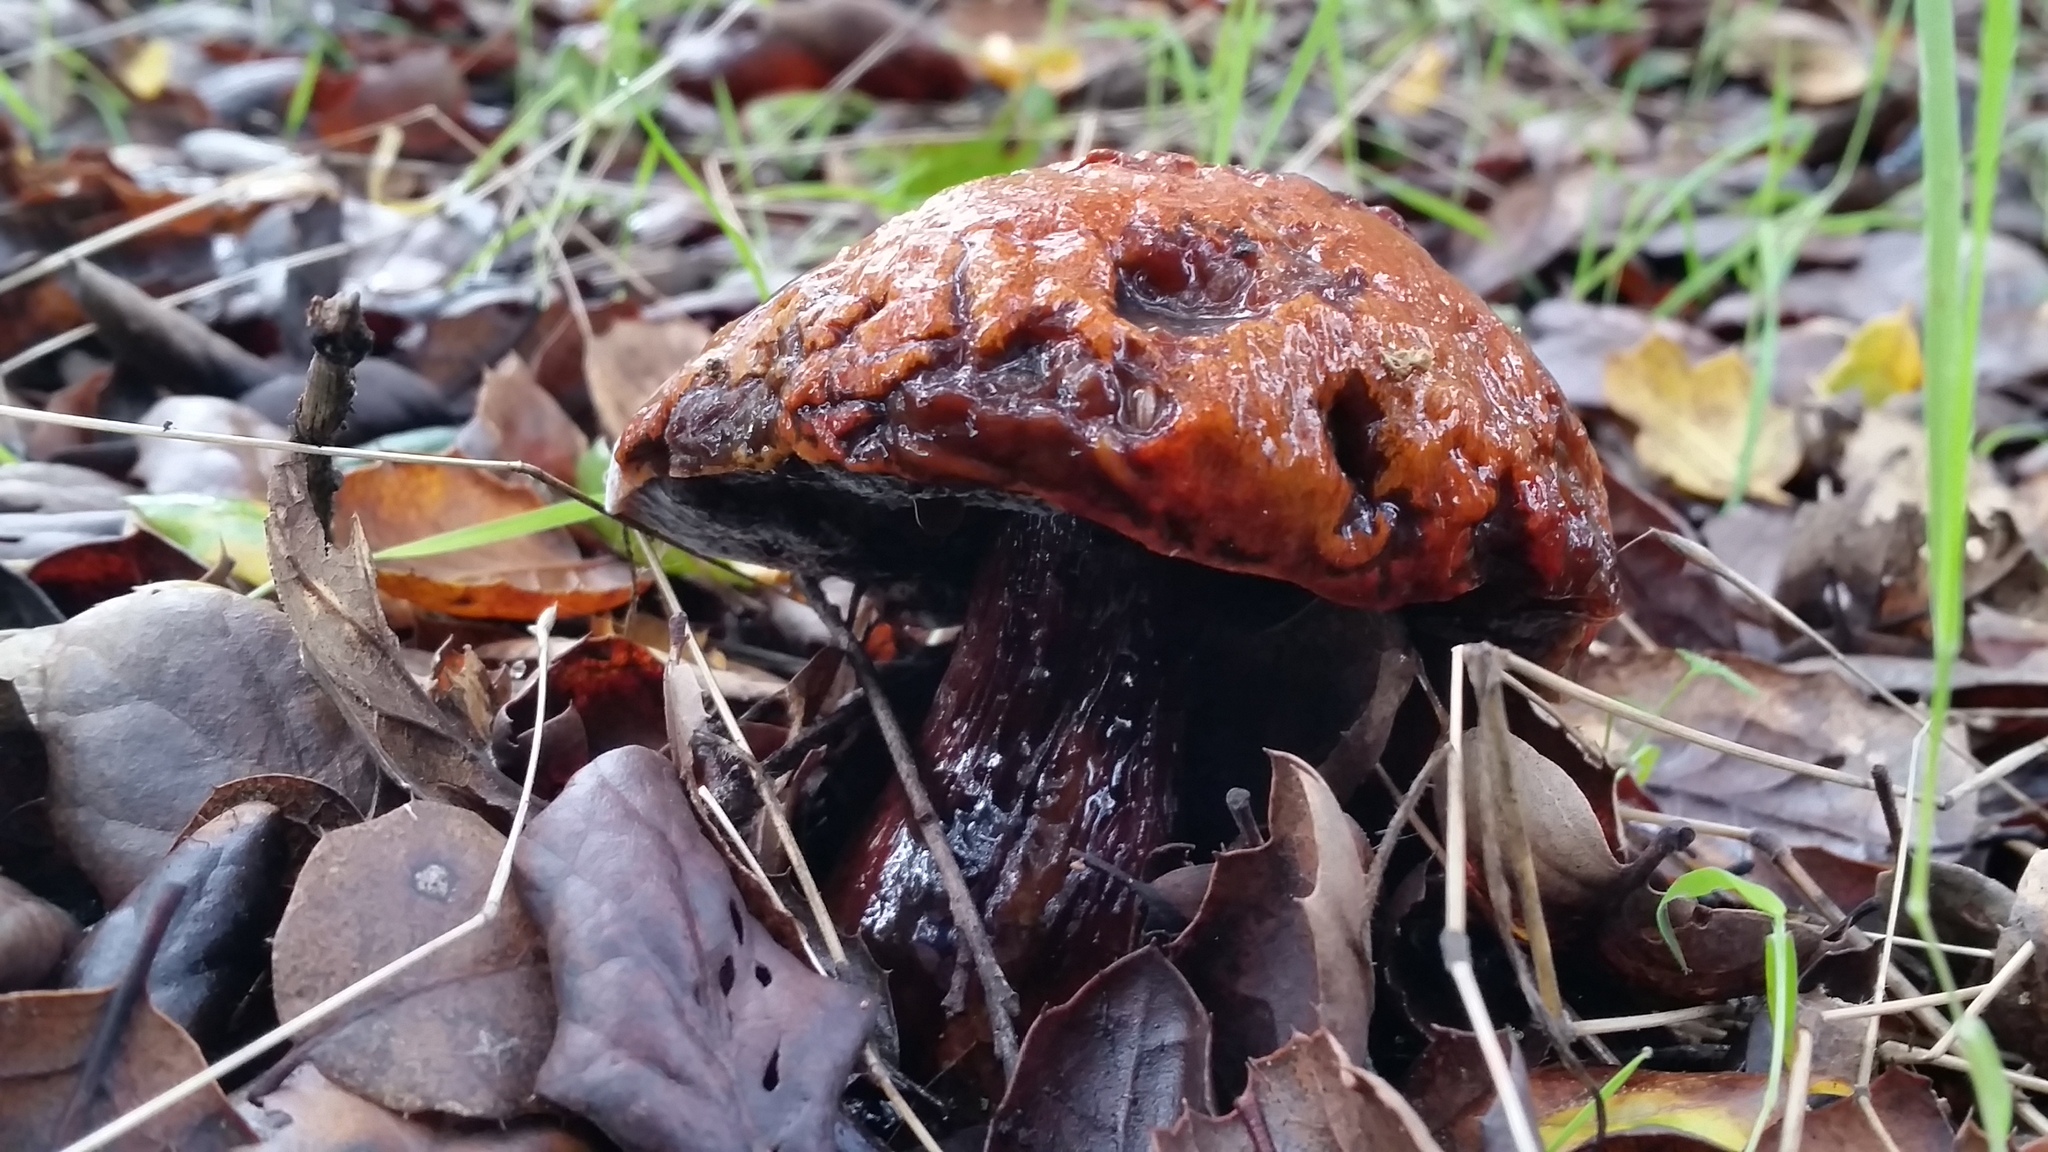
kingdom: Fungi
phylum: Basidiomycota
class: Agaricomycetes
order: Boletales
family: Suillaceae
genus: Suillus
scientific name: Suillus pungens
